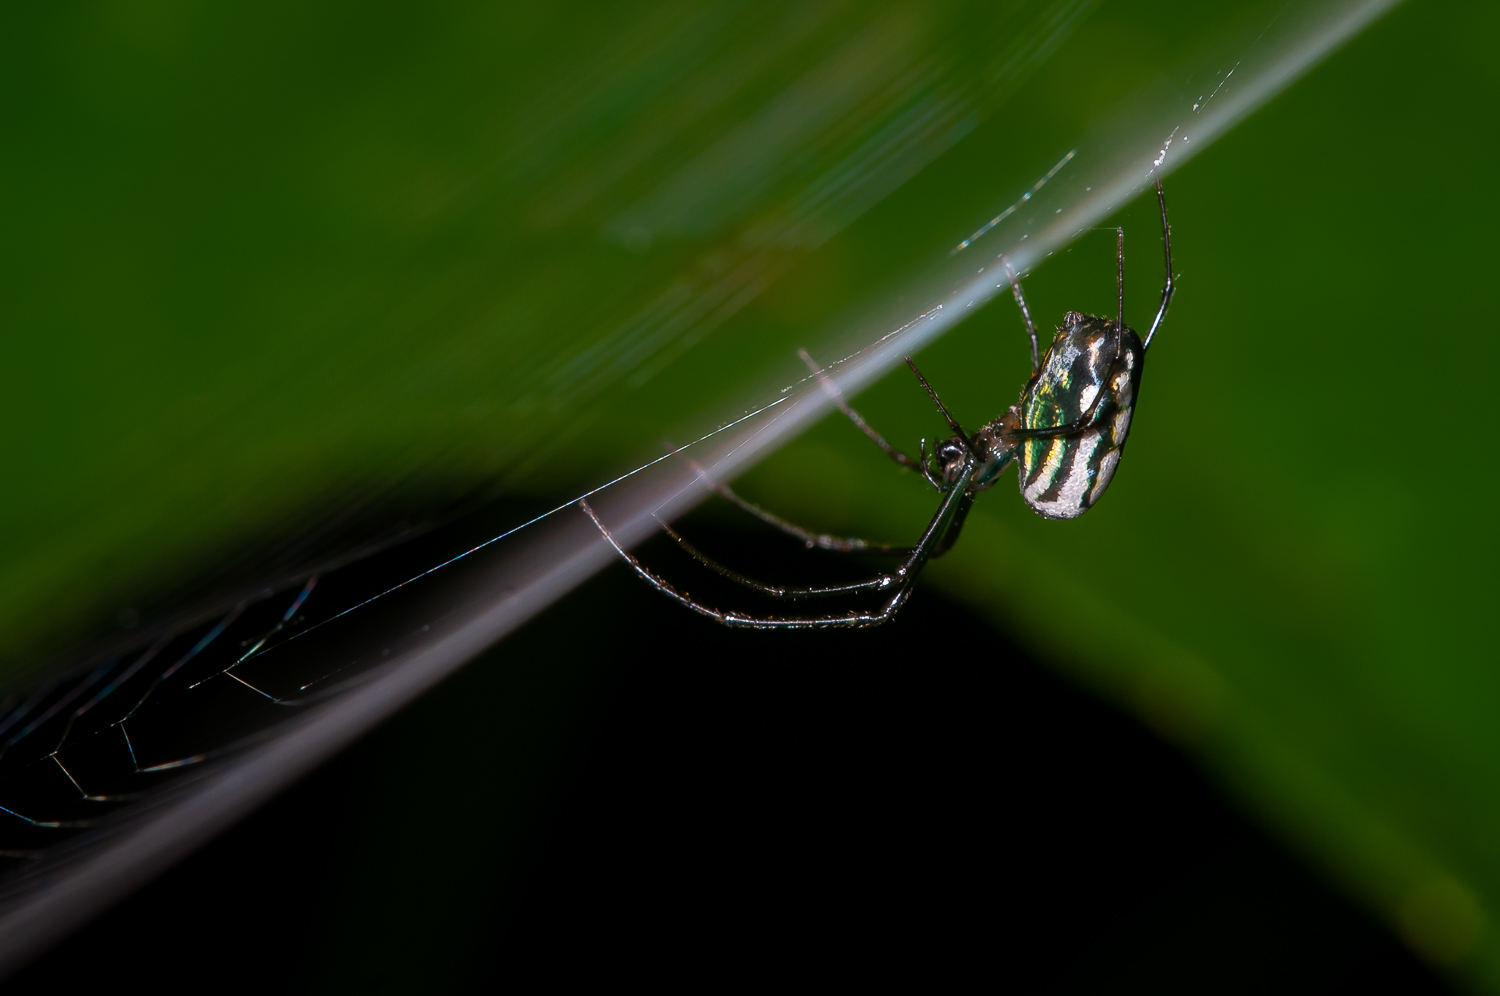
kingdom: Animalia
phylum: Arthropoda
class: Arachnida
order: Araneae
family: Tetragnathidae
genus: Leucauge
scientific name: Leucauge argyra
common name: Longjawed orb weavers
